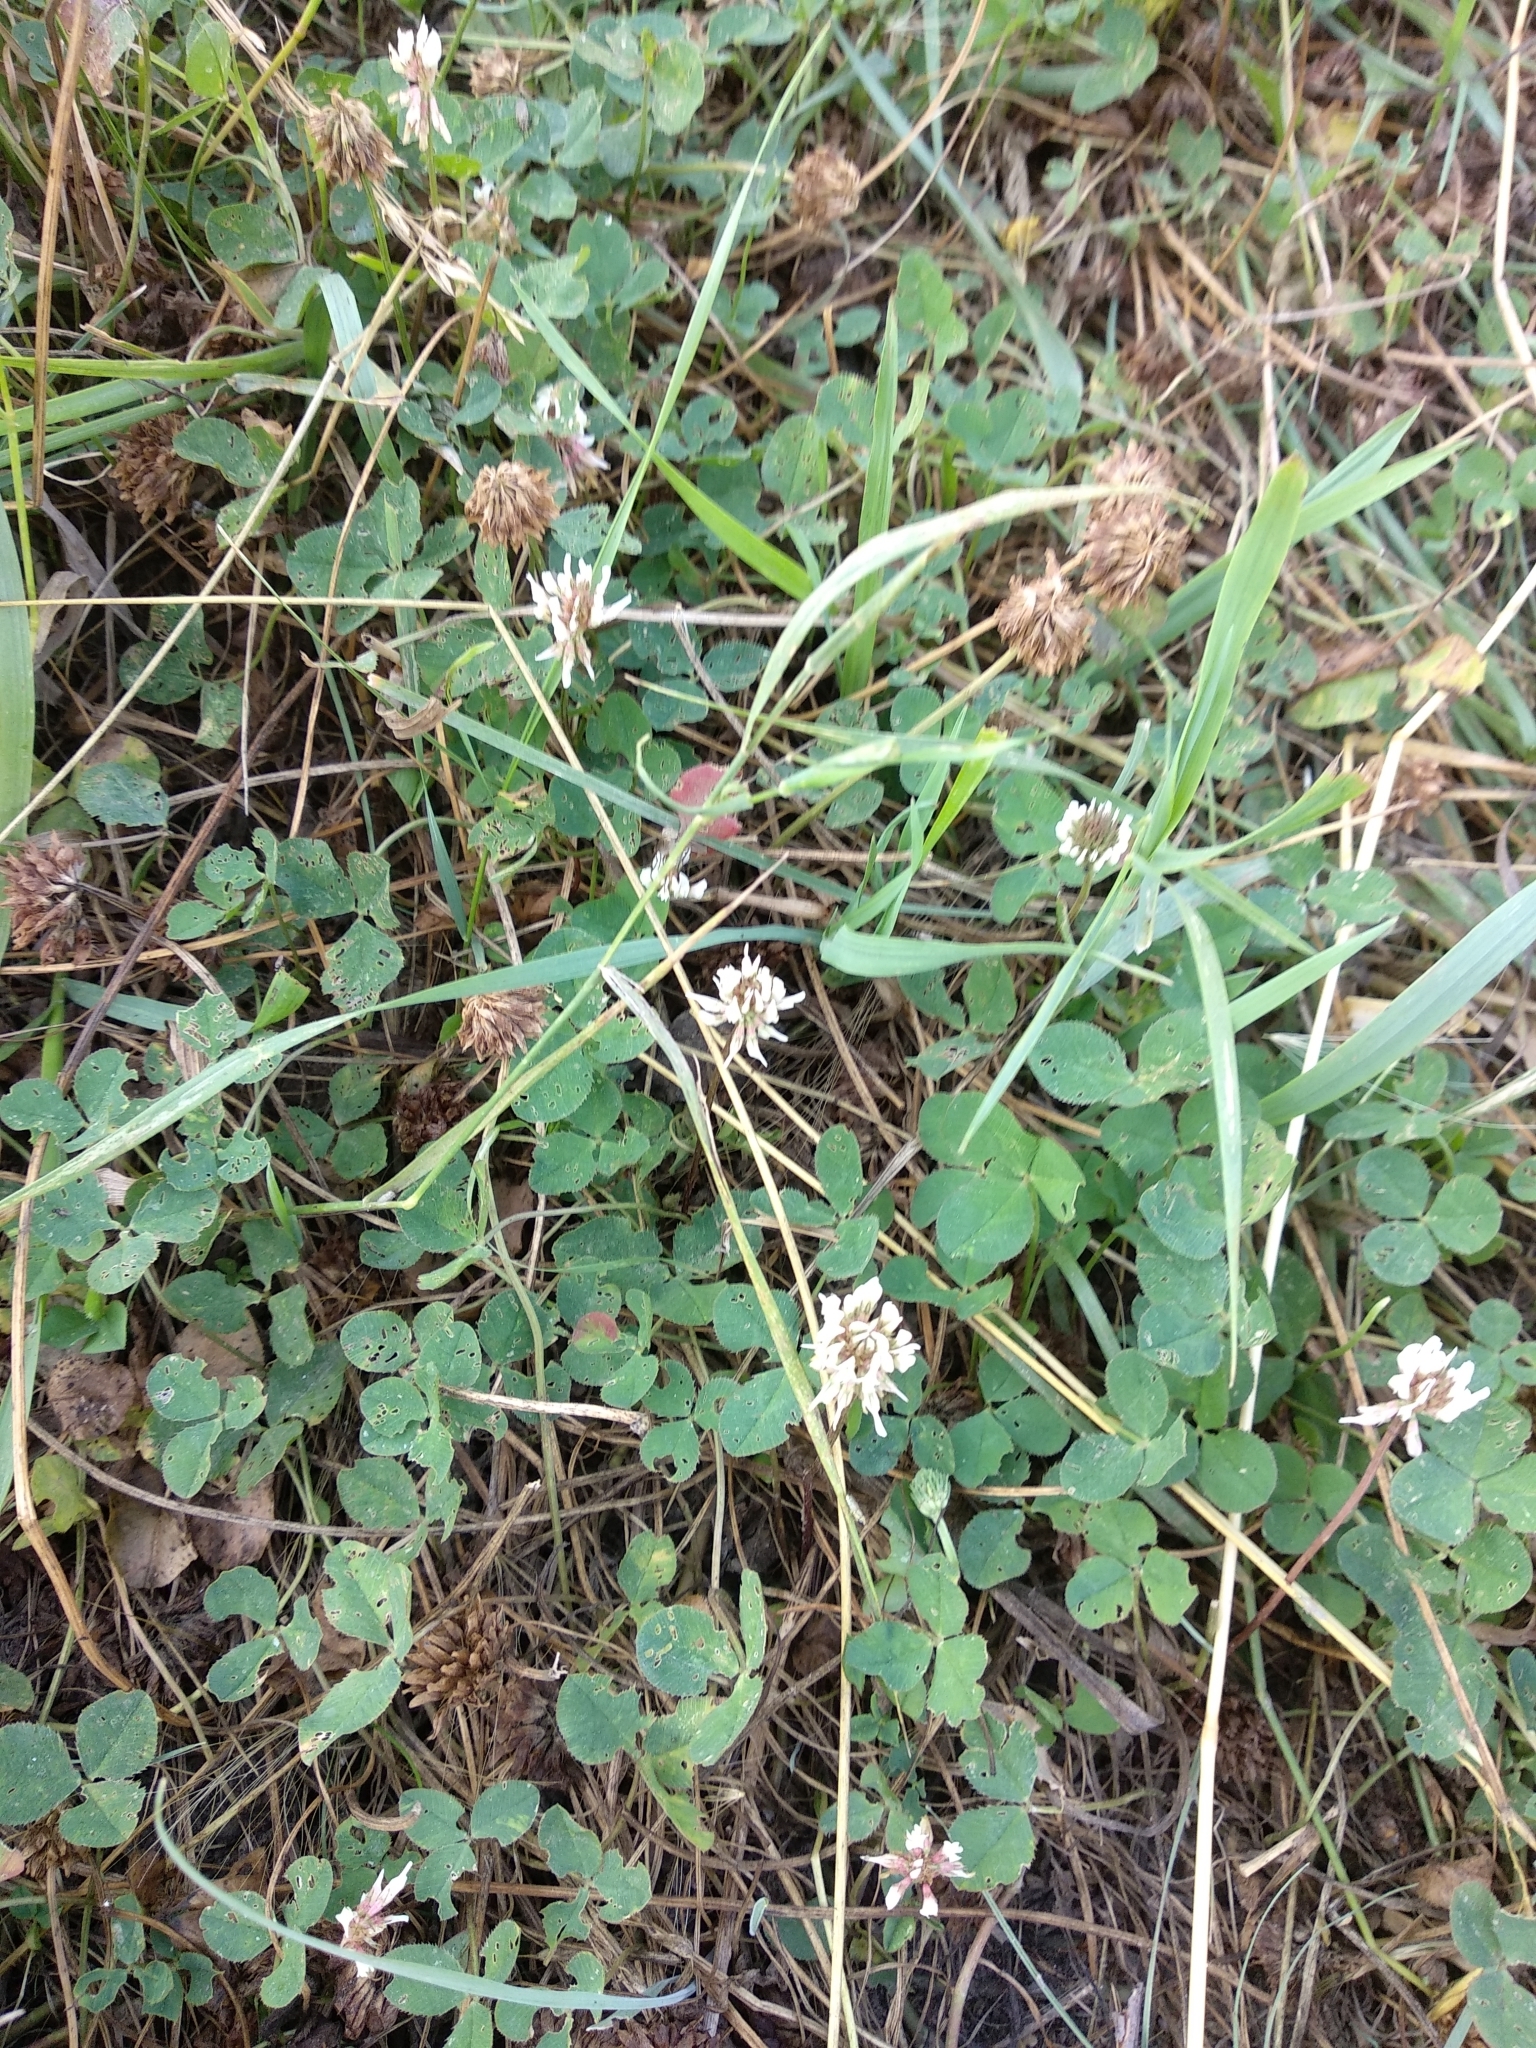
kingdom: Plantae
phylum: Tracheophyta
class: Magnoliopsida
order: Fabales
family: Fabaceae
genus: Trifolium
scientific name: Trifolium repens
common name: White clover
